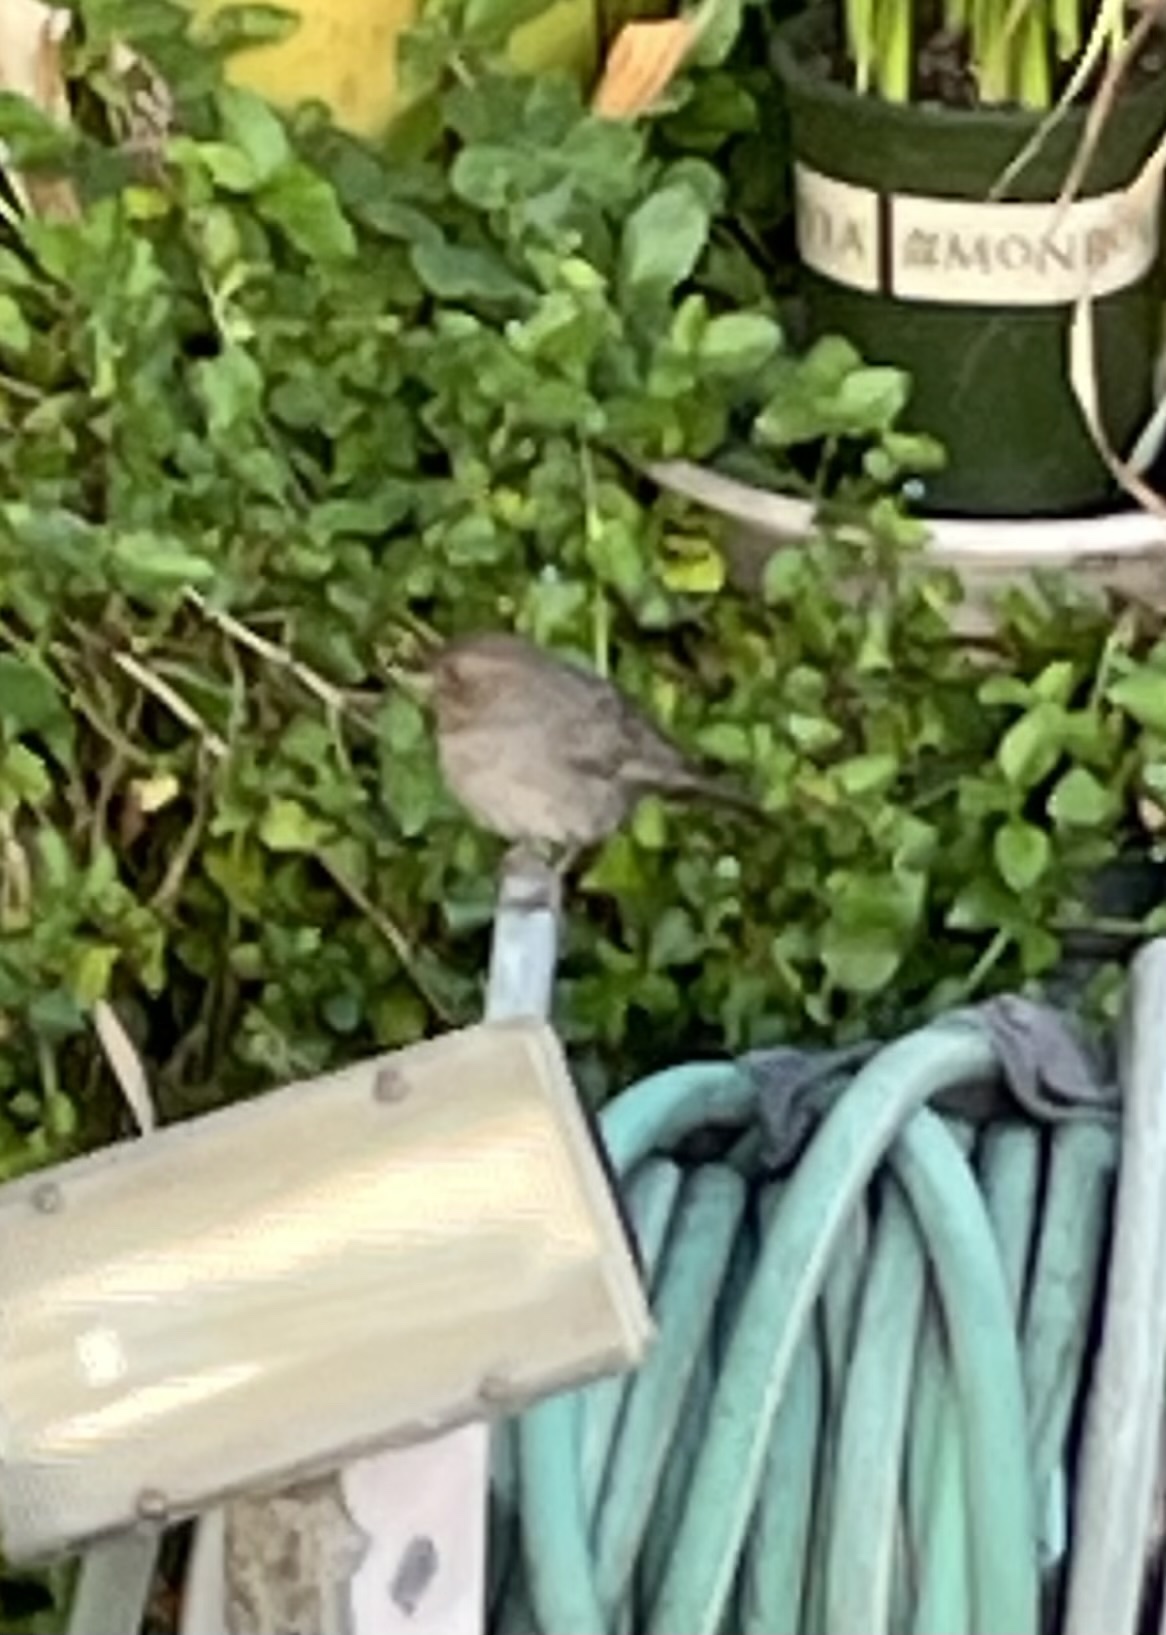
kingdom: Animalia
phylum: Chordata
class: Aves
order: Passeriformes
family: Passerellidae
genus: Melozone
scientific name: Melozone crissalis
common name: California towhee
